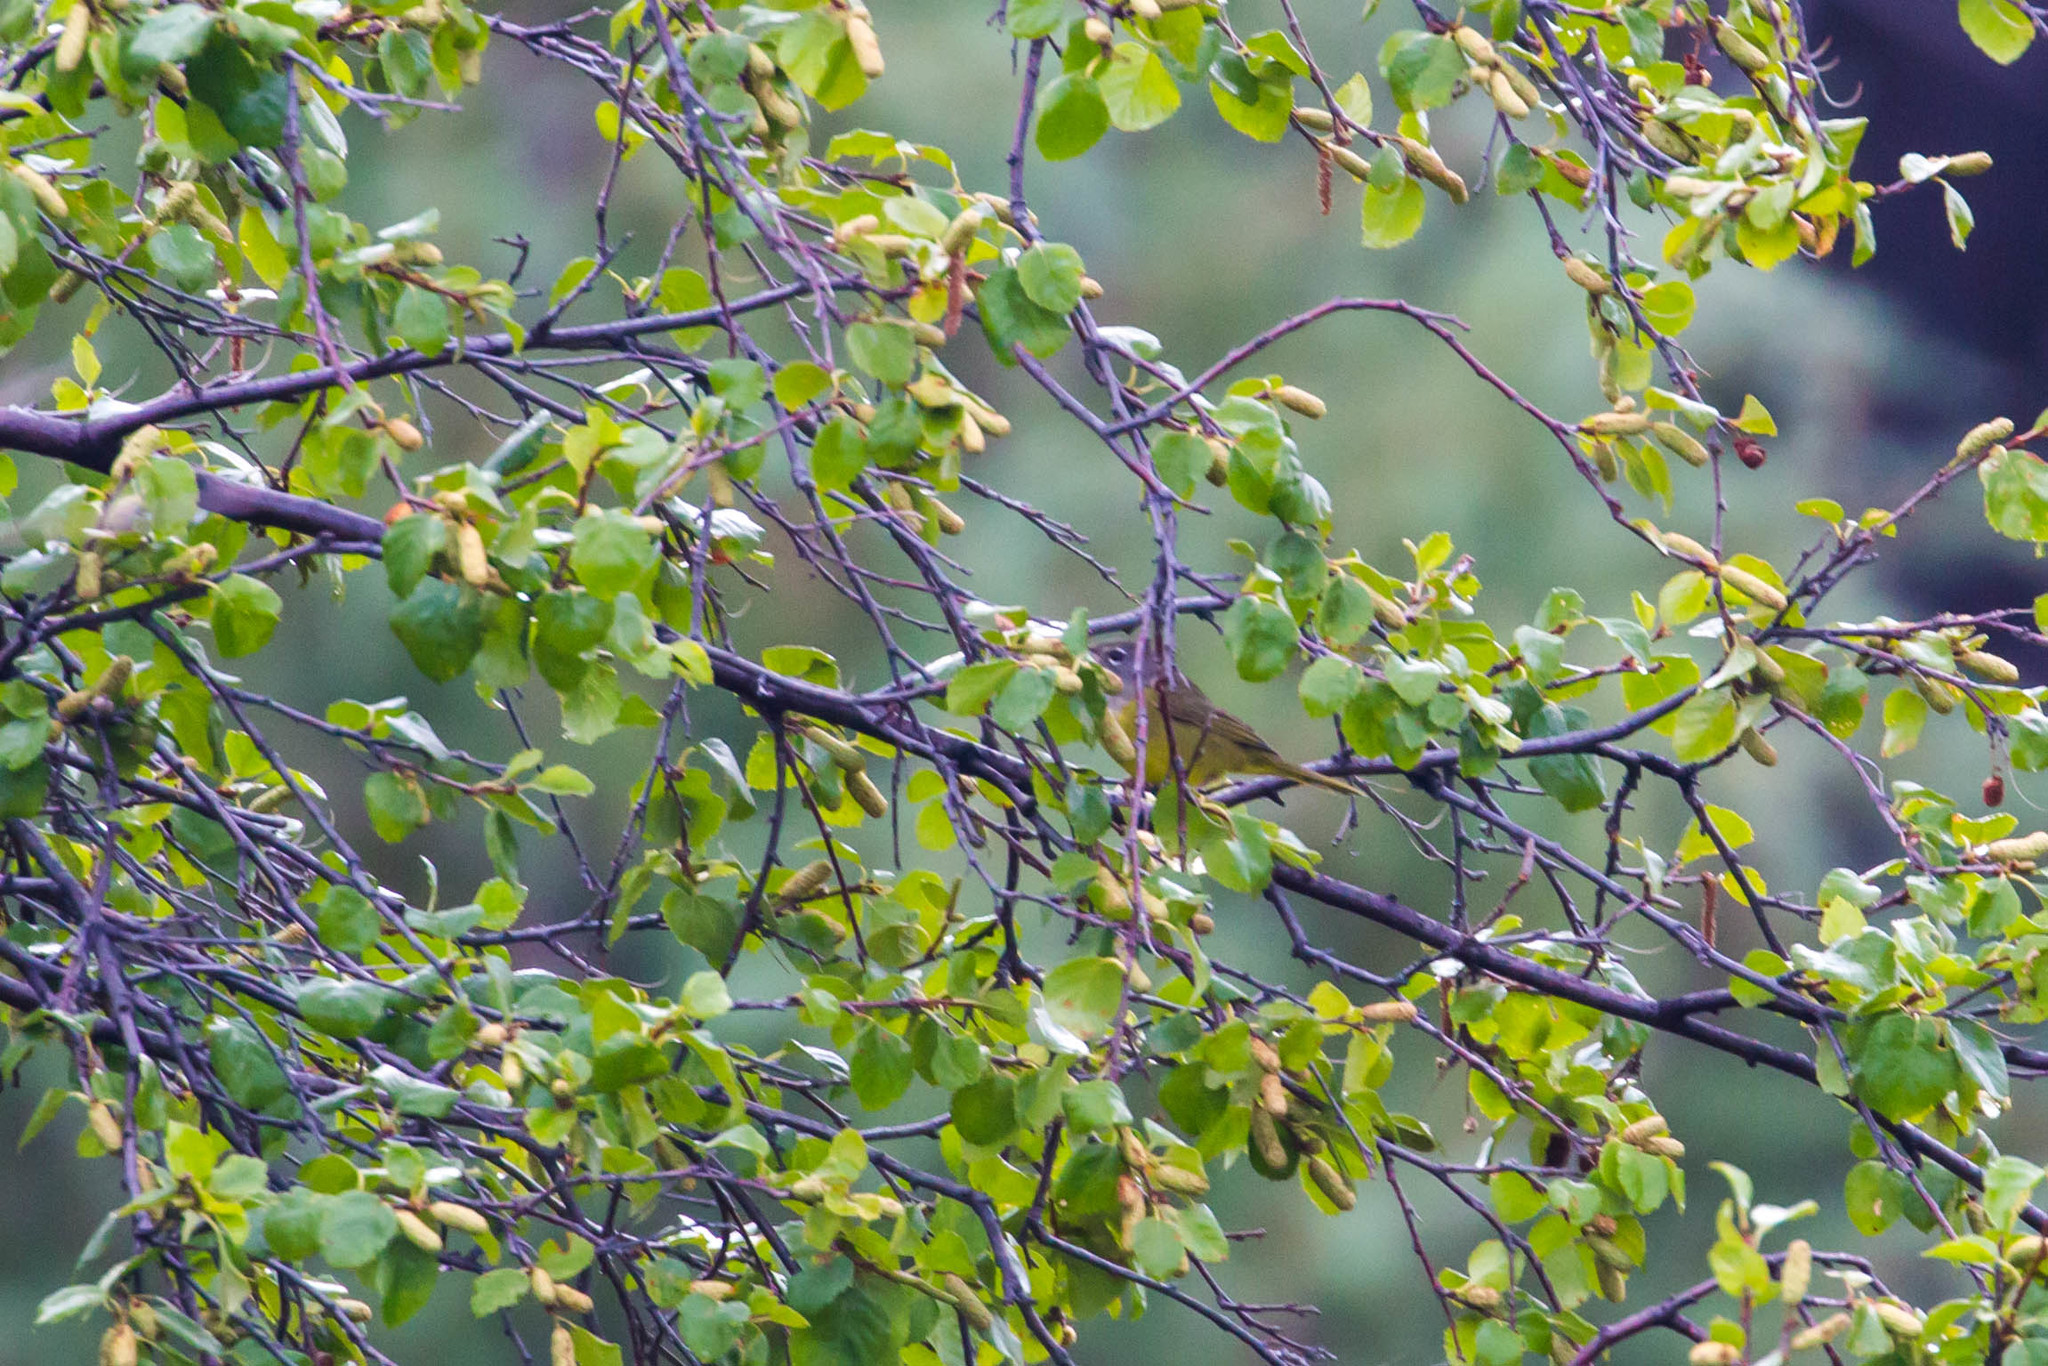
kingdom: Animalia
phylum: Chordata
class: Aves
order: Passeriformes
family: Parulidae
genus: Geothlypis
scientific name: Geothlypis tolmiei
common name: Macgillivray's warbler
